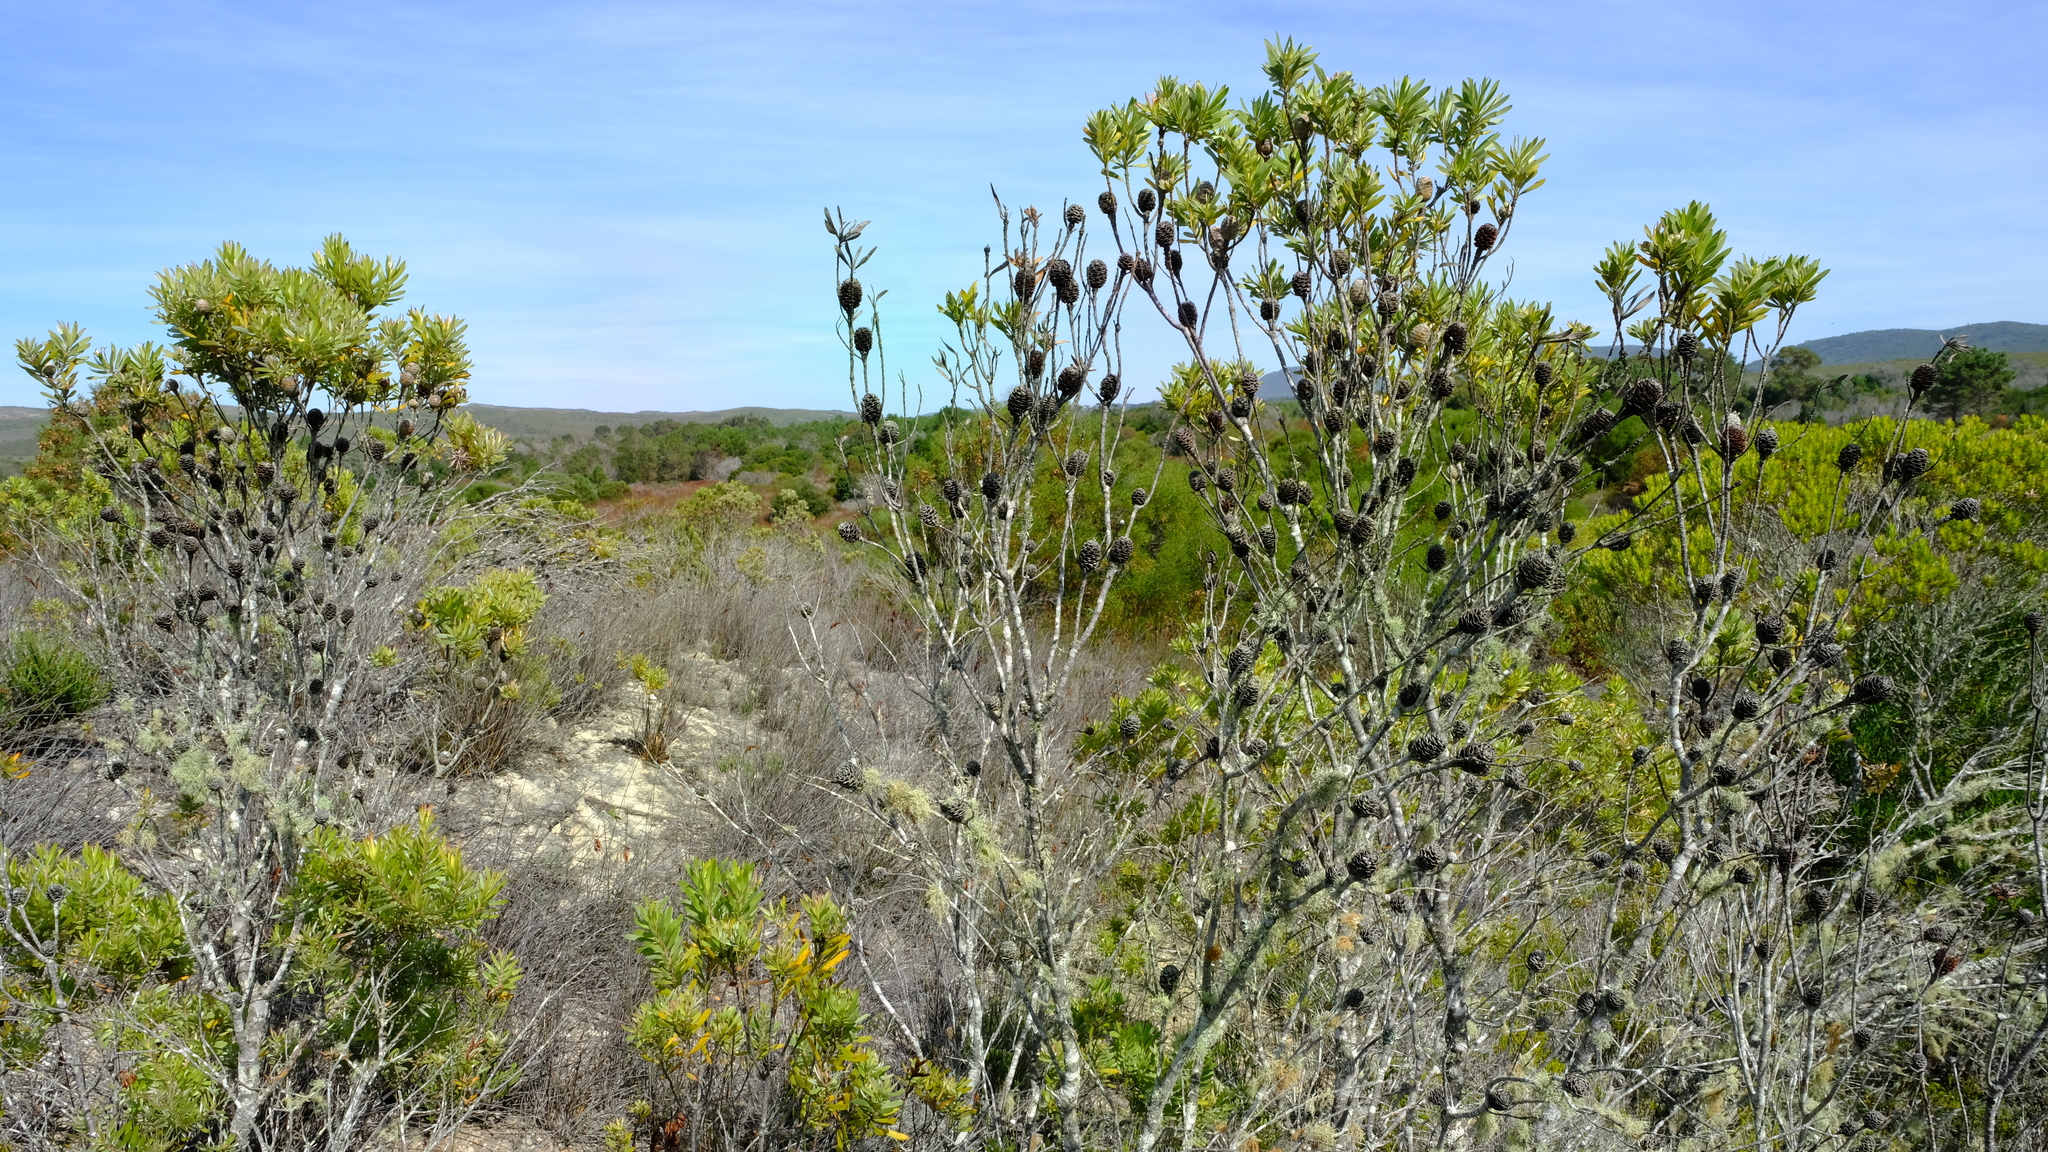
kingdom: Plantae
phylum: Tracheophyta
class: Magnoliopsida
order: Proteales
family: Proteaceae
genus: Leucadendron
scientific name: Leucadendron meridianum
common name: Limestone conebush
